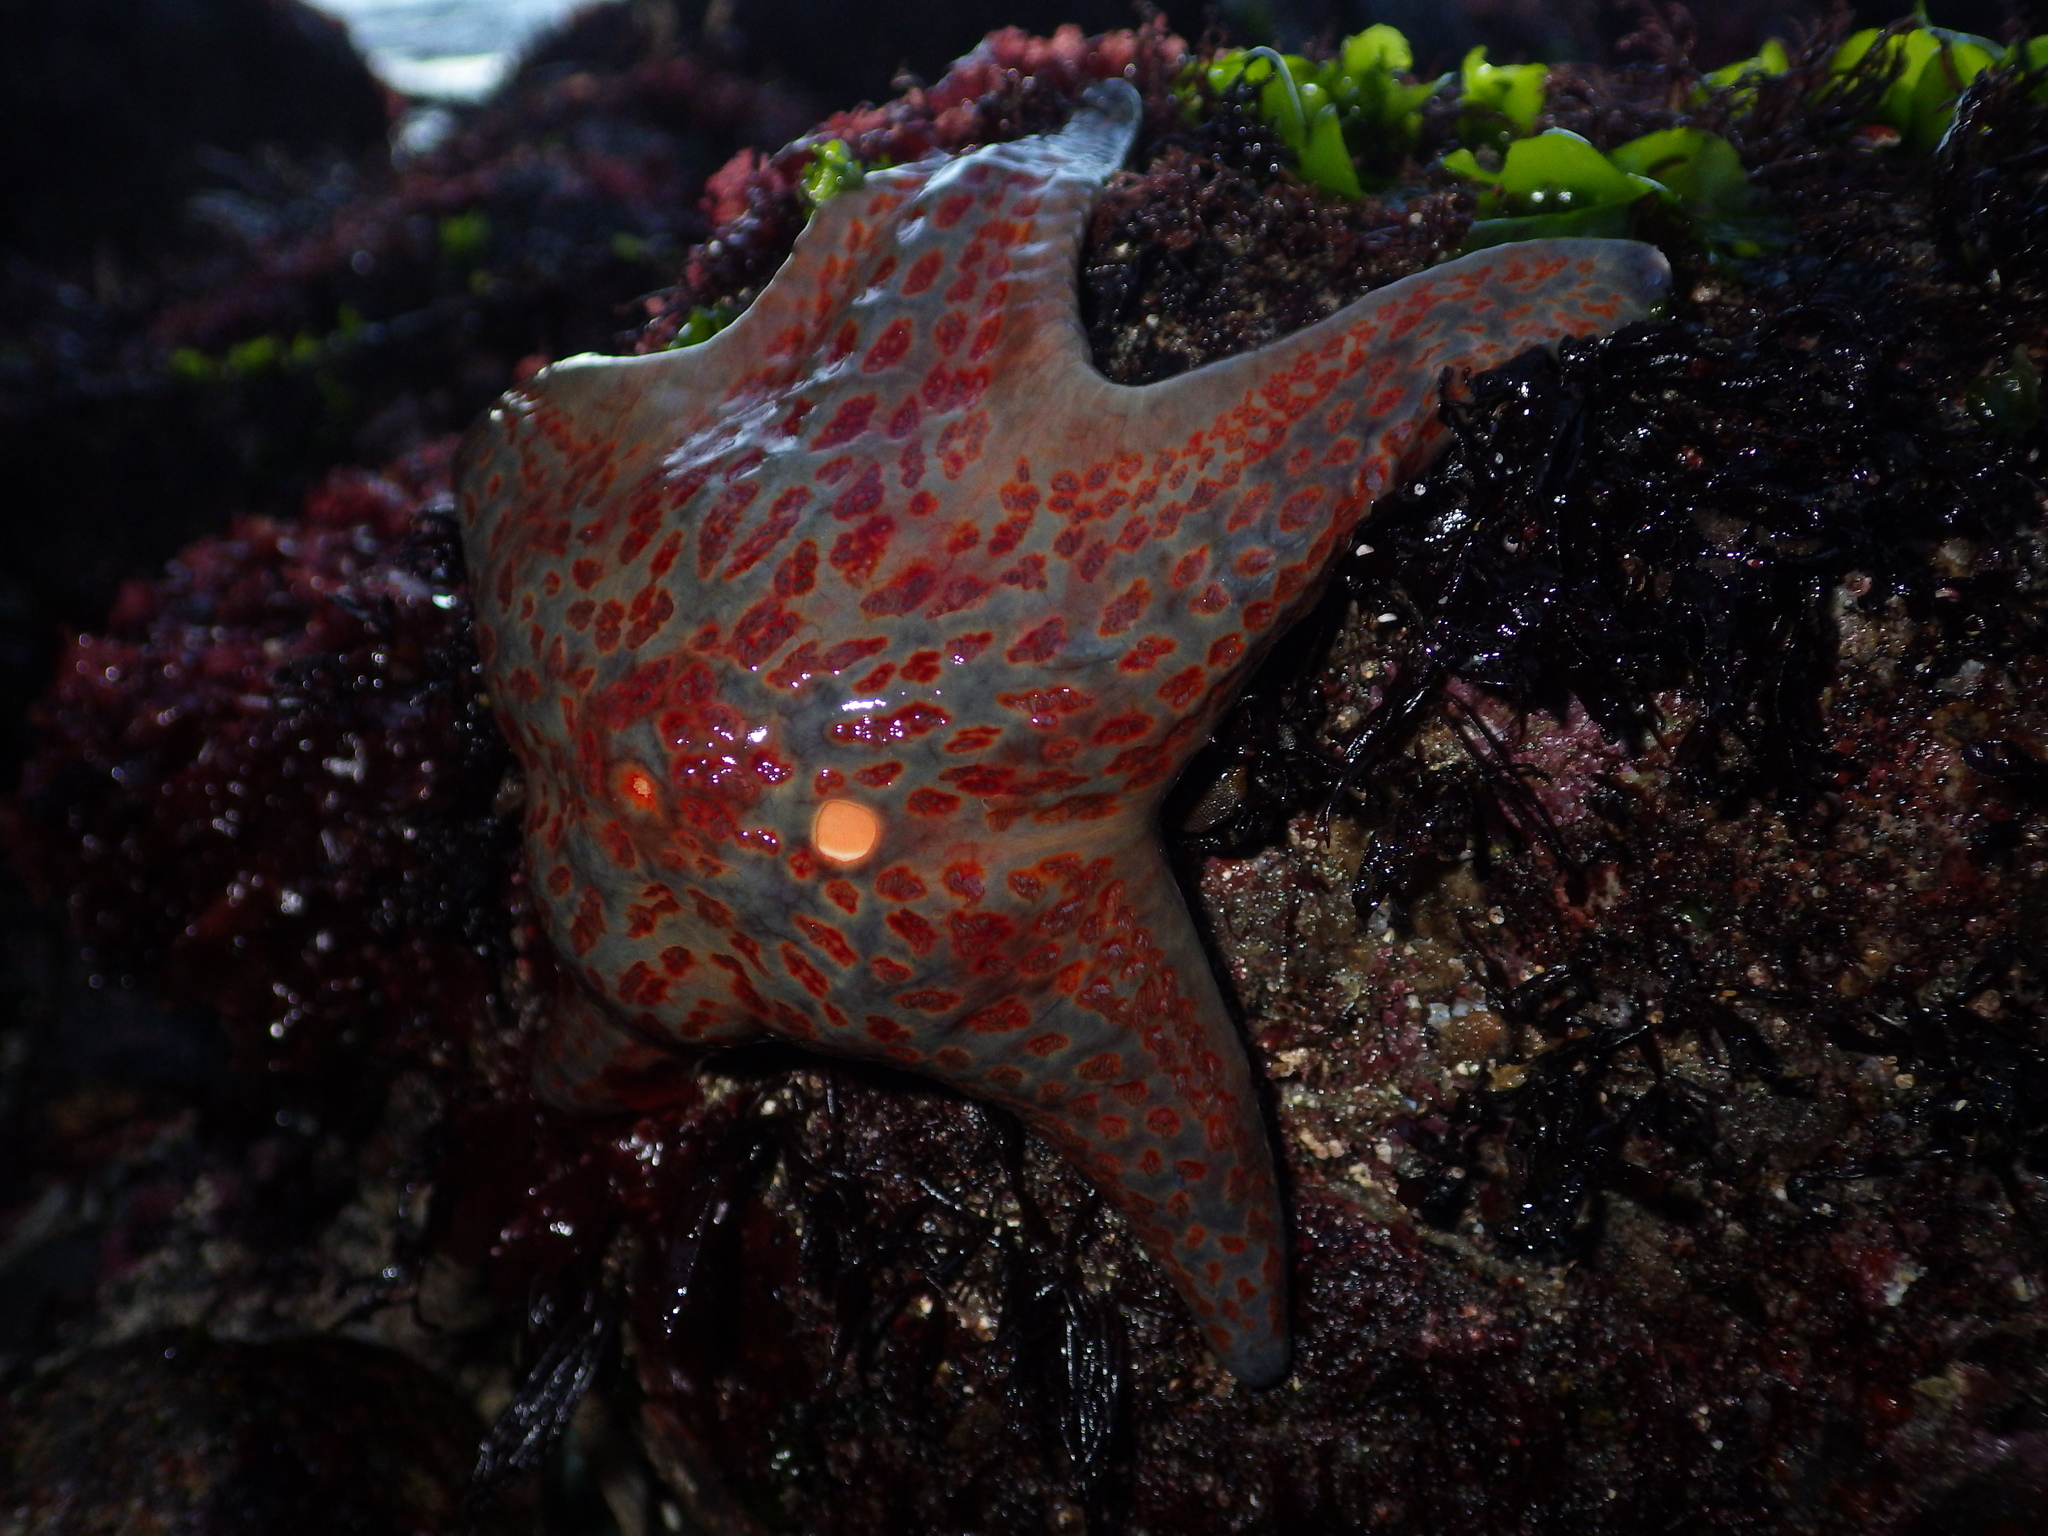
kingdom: Animalia
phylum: Echinodermata
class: Asteroidea
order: Valvatida
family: Asteropseidae
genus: Dermasterias
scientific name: Dermasterias imbricata
